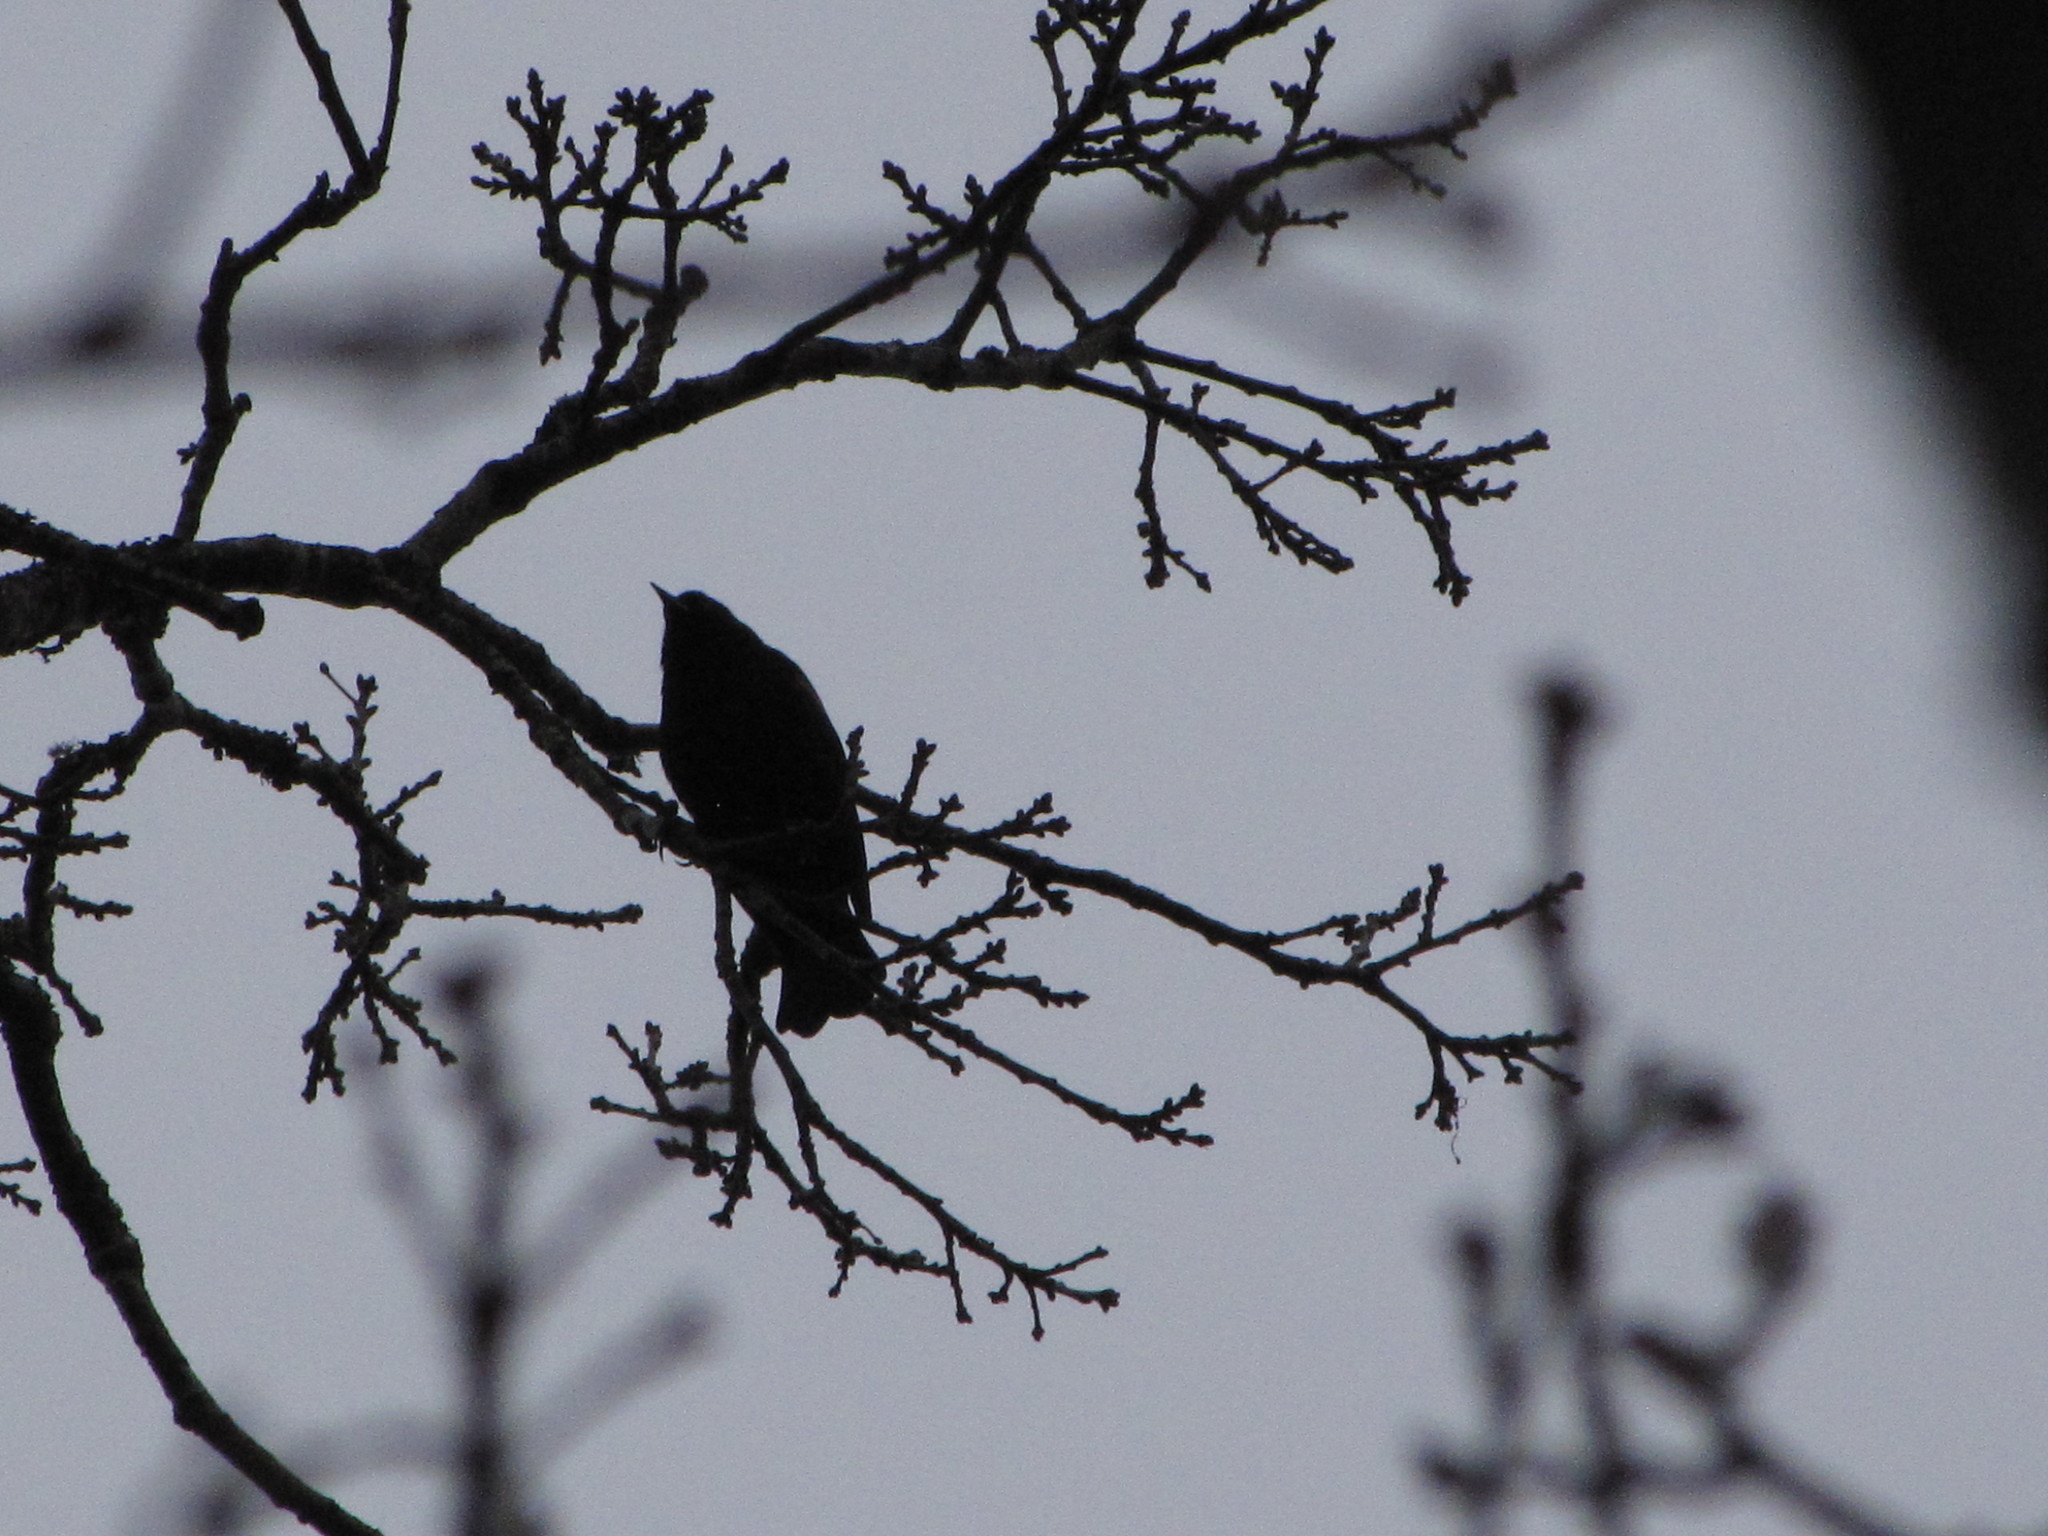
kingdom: Animalia
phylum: Chordata
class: Aves
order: Passeriformes
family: Icteridae
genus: Agelaius
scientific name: Agelaius phoeniceus
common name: Red-winged blackbird
